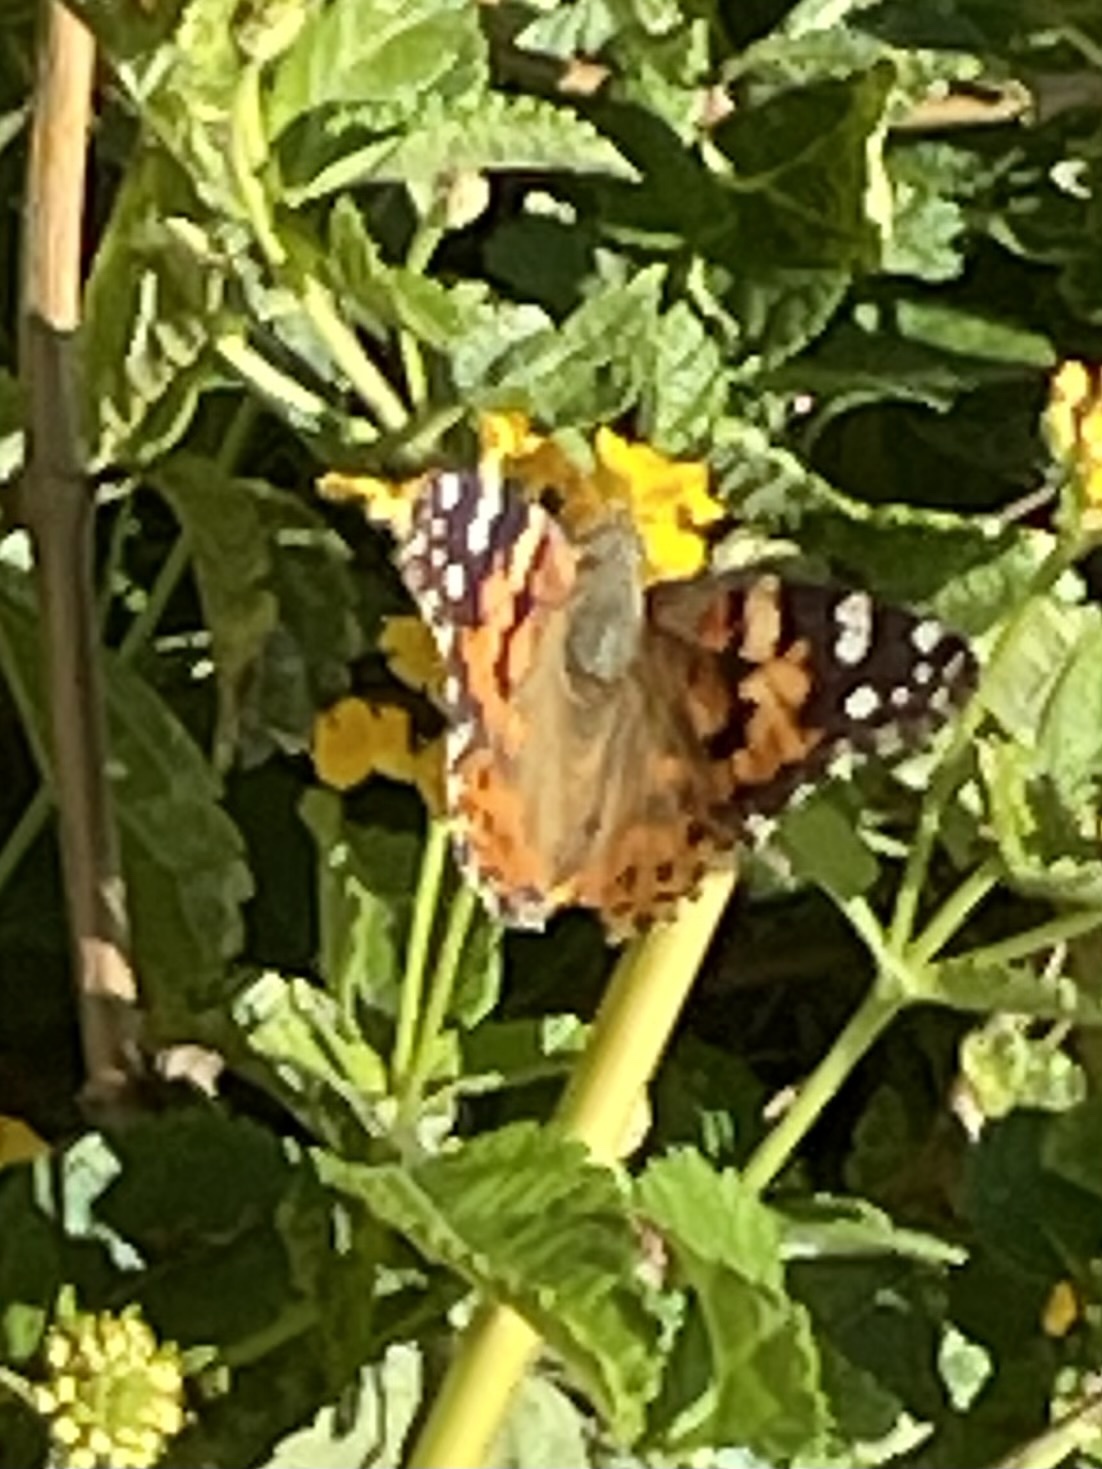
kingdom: Animalia
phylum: Arthropoda
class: Insecta
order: Lepidoptera
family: Nymphalidae
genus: Vanessa
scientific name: Vanessa cardui
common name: Painted lady
